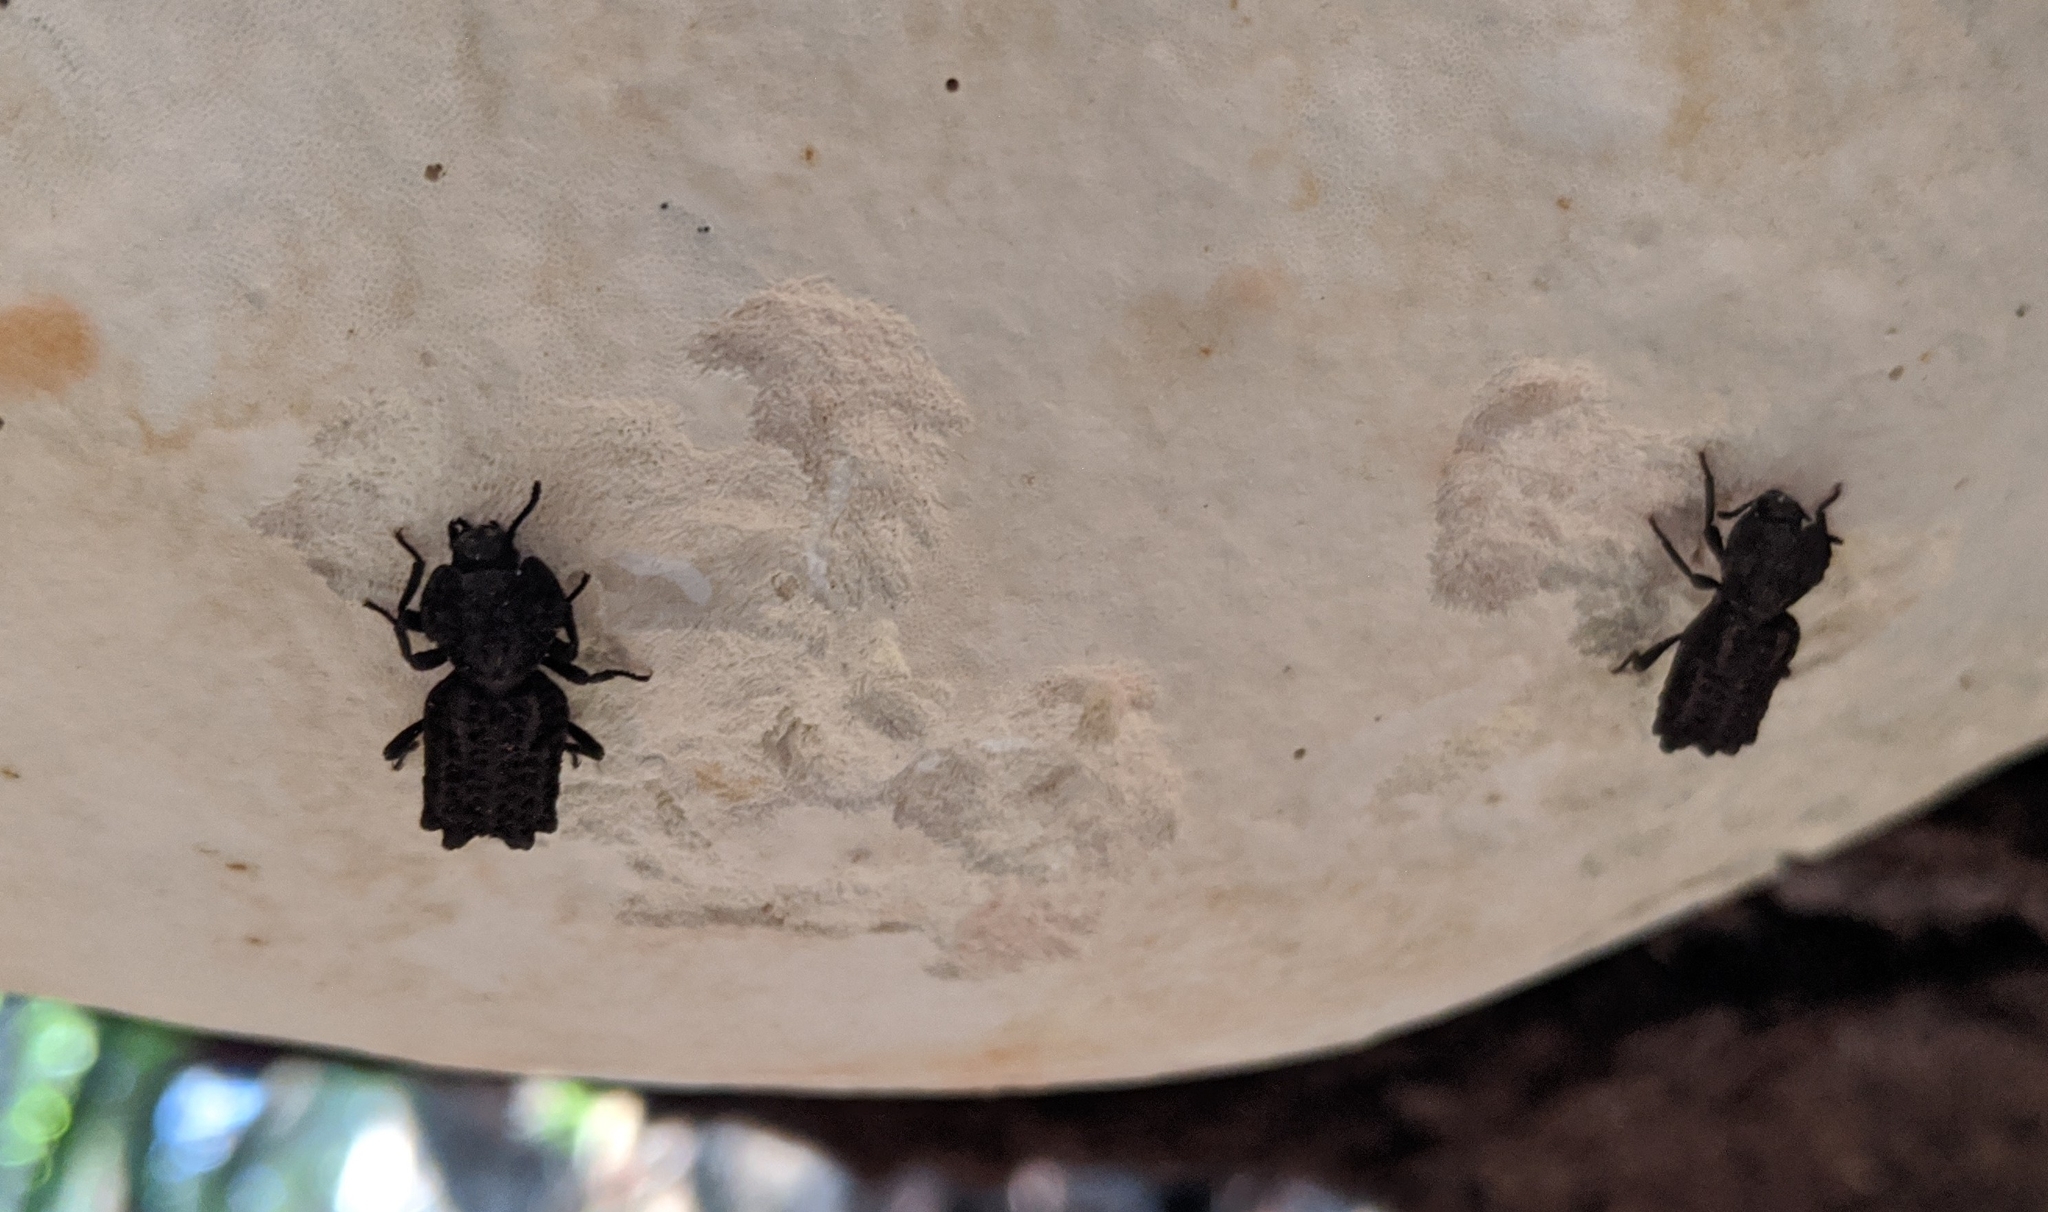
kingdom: Animalia
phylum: Arthropoda
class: Insecta
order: Coleoptera
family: Zopheridae
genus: Phellopsis
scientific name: Phellopsis porcata
